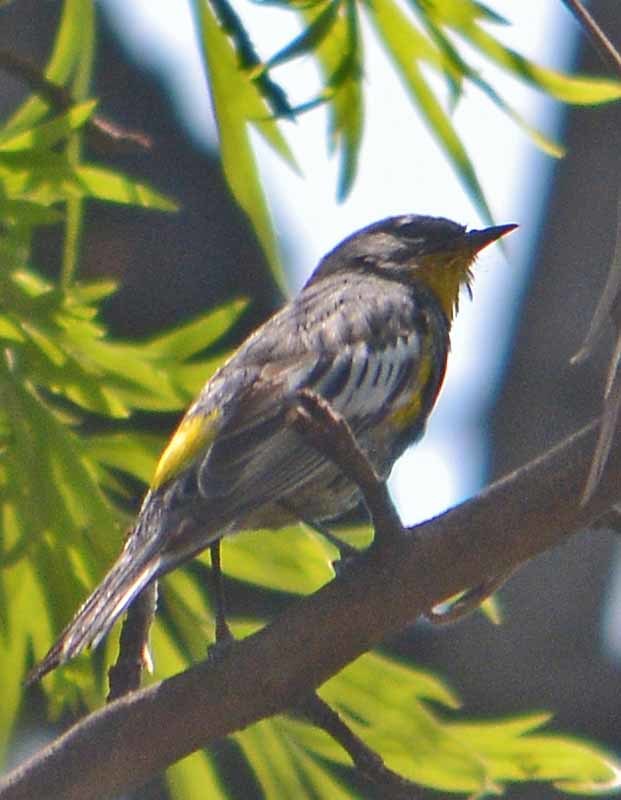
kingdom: Animalia
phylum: Chordata
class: Aves
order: Passeriformes
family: Parulidae
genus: Setophaga
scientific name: Setophaga auduboni
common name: Audubon's warbler
